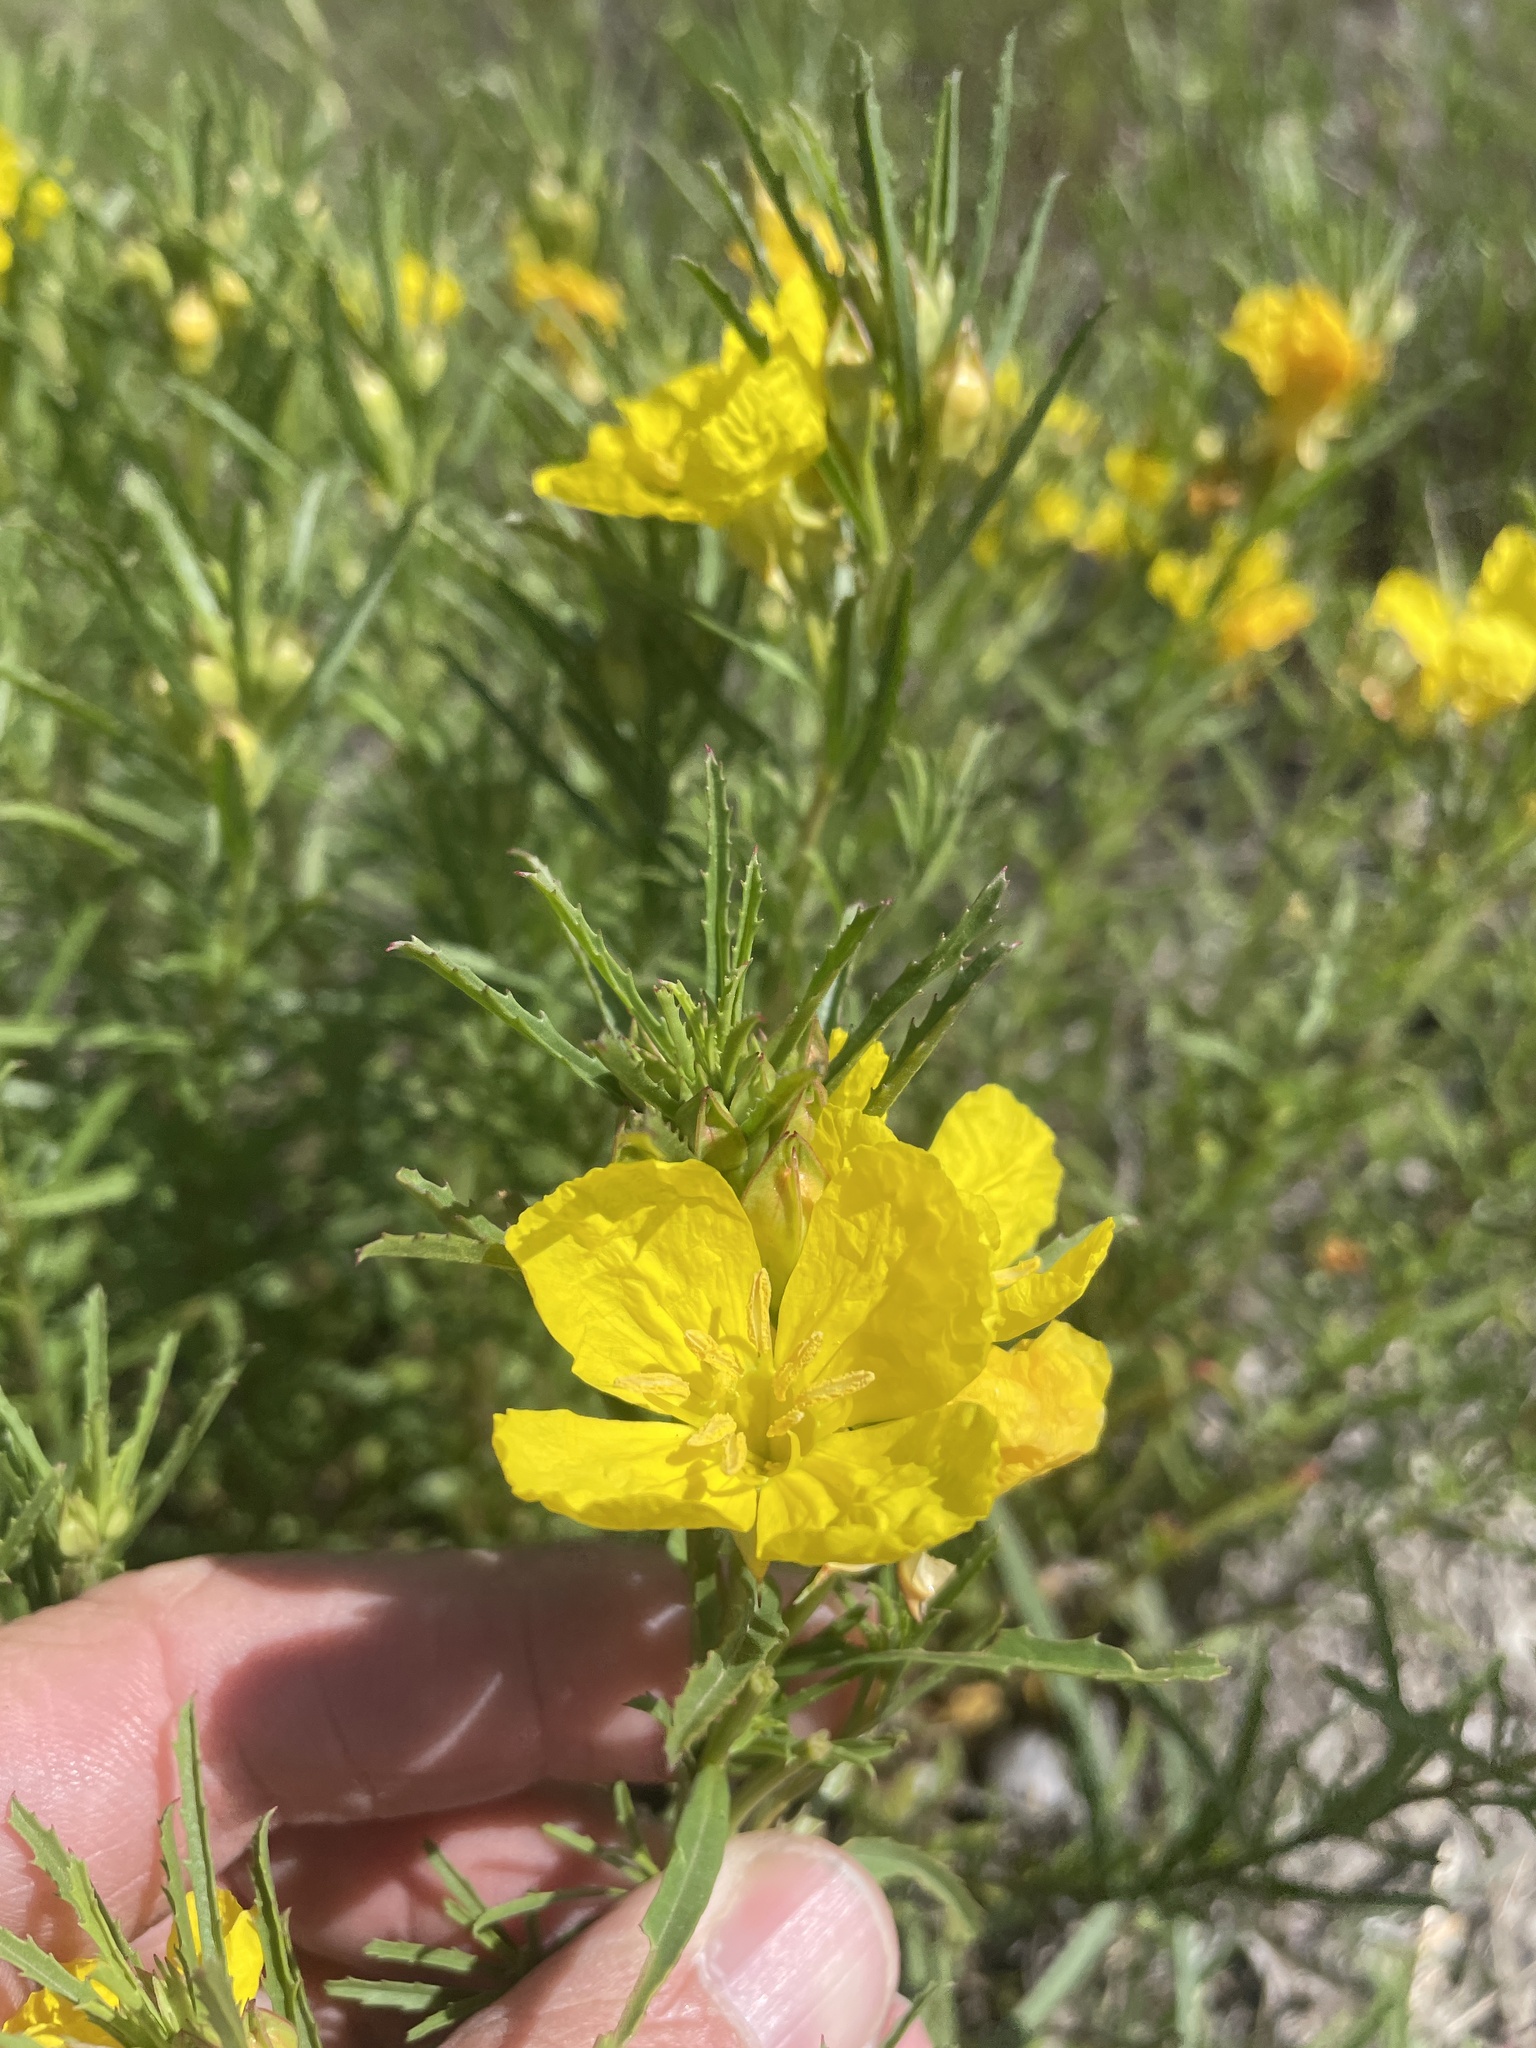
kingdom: Plantae
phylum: Tracheophyta
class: Magnoliopsida
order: Myrtales
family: Onagraceae
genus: Oenothera
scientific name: Oenothera
